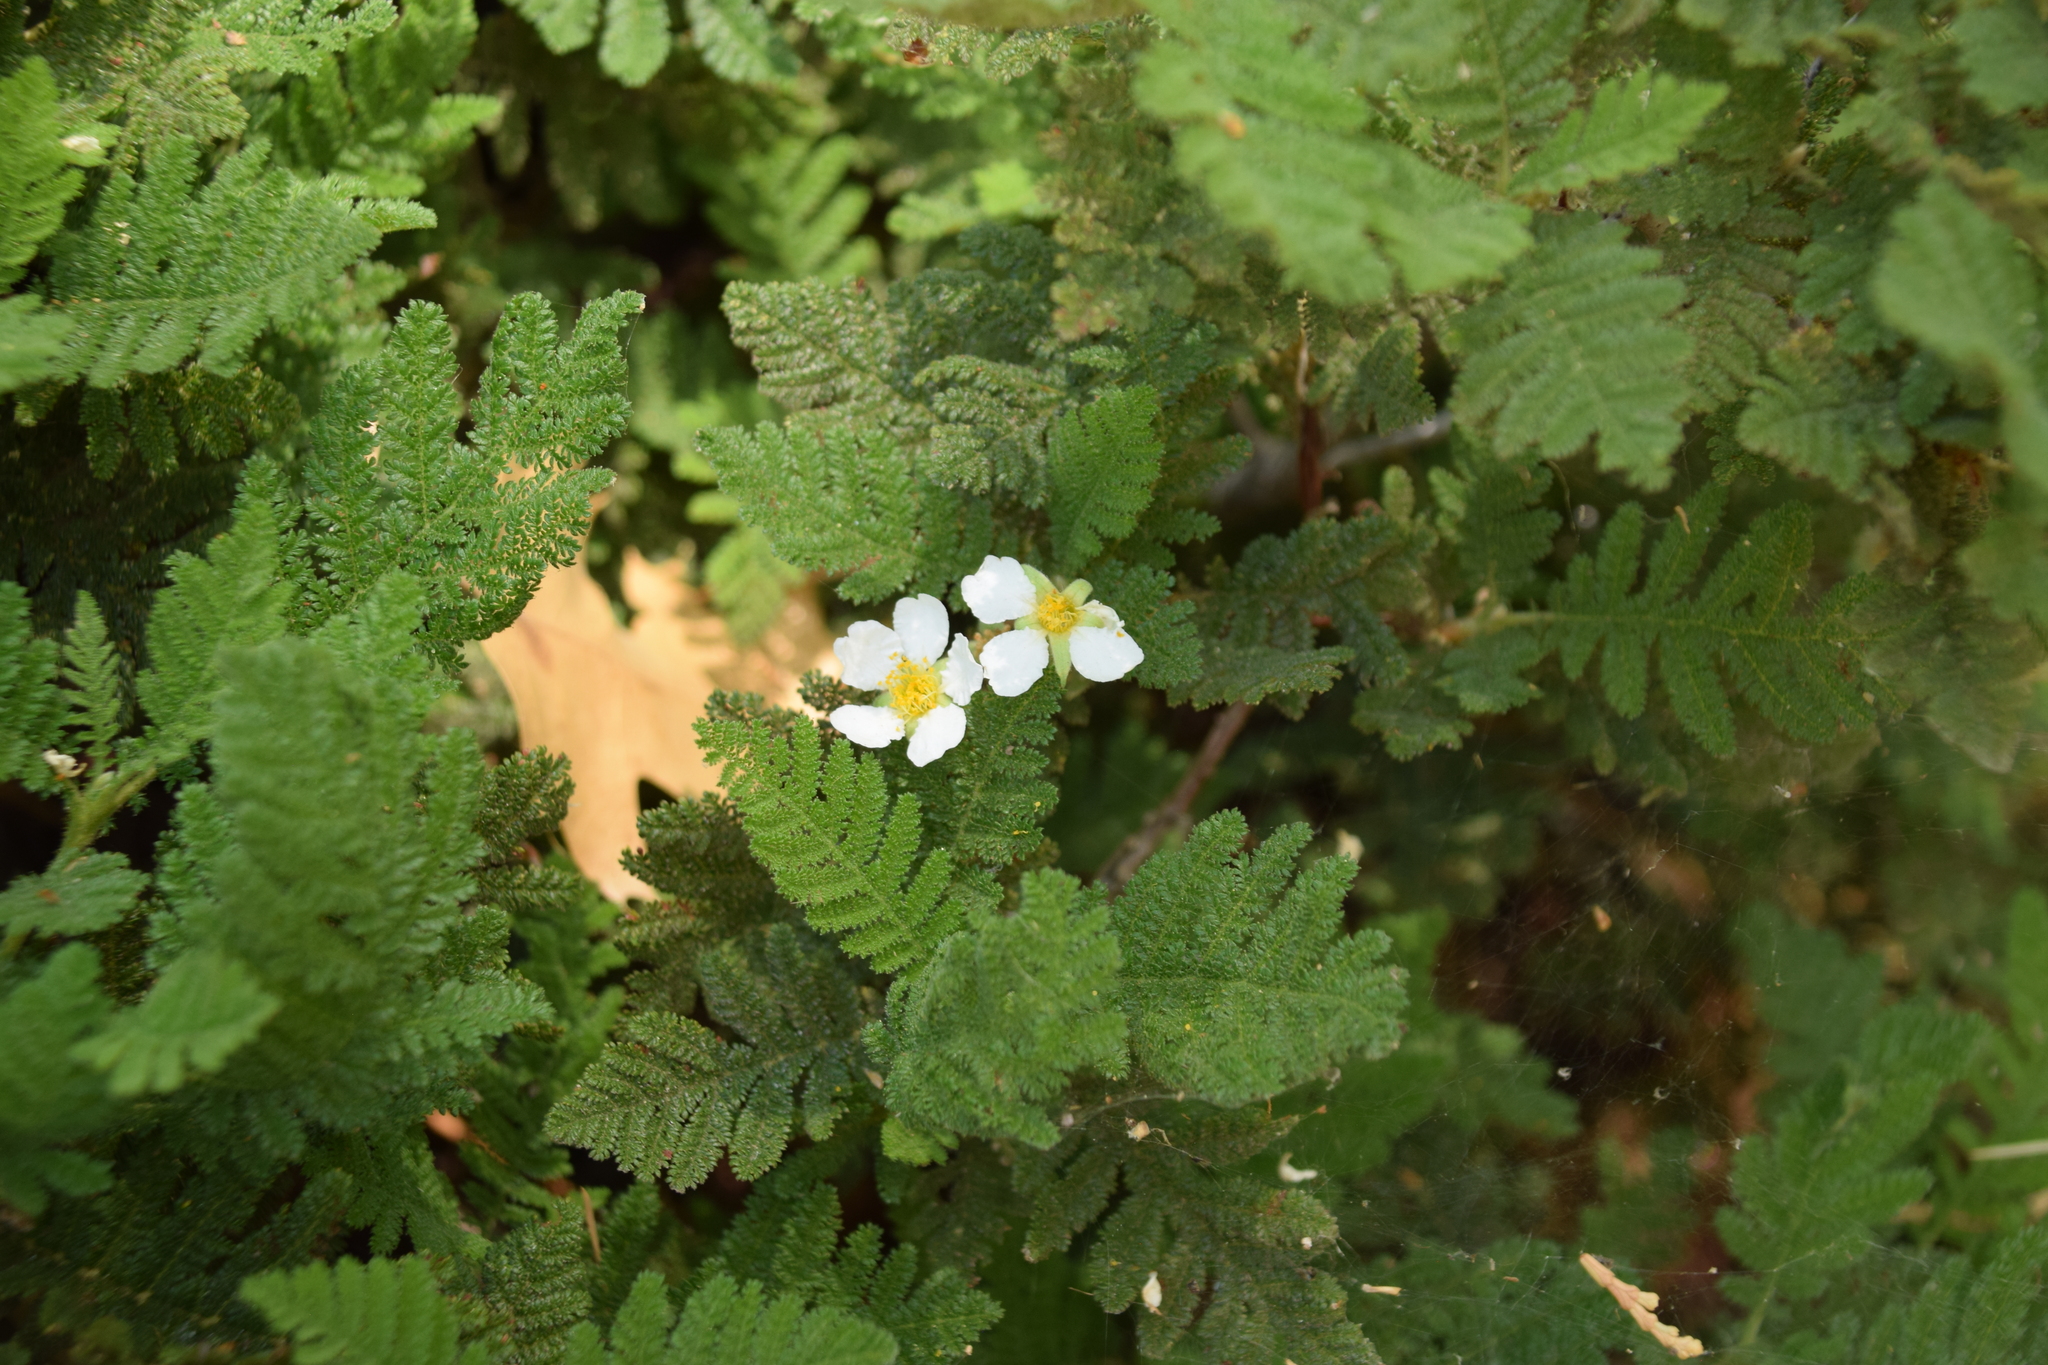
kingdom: Plantae
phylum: Tracheophyta
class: Magnoliopsida
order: Rosales
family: Rosaceae
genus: Chamaebatia
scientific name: Chamaebatia foliolosa
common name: Mountain misery
